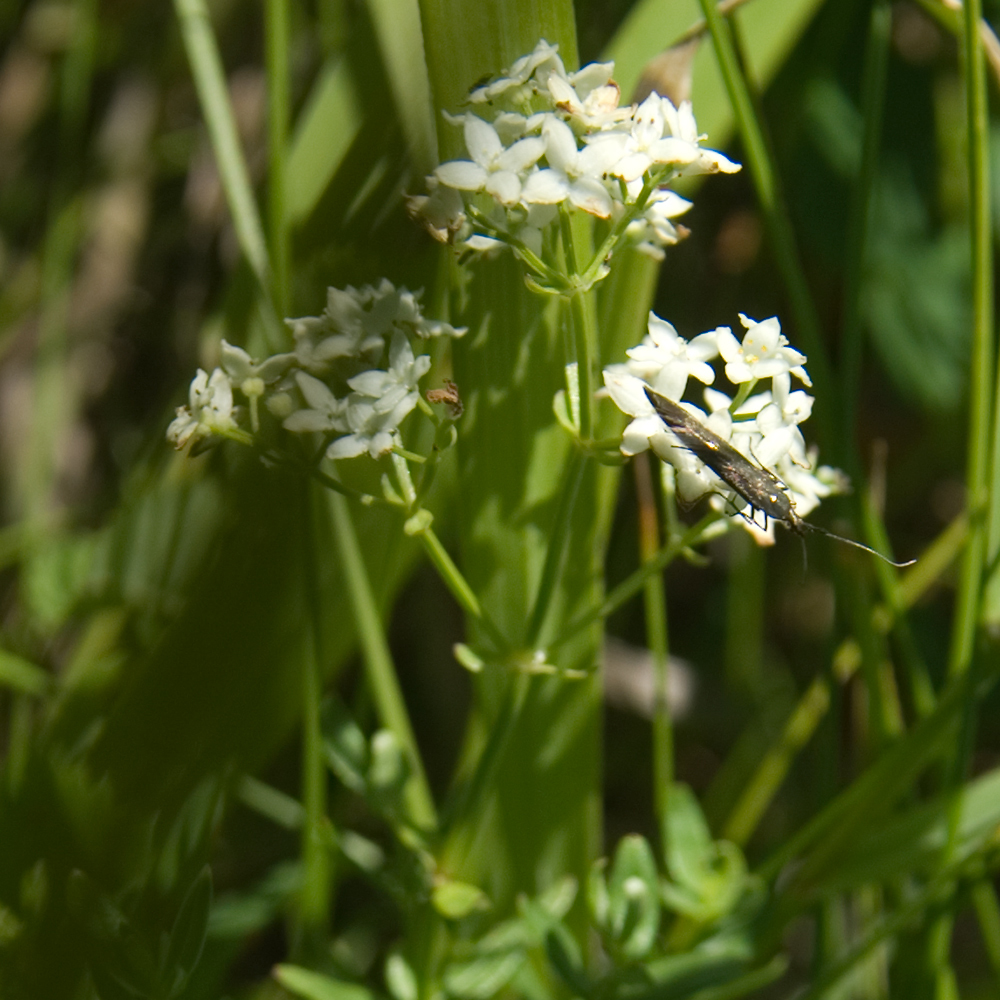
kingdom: Plantae
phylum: Tracheophyta
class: Magnoliopsida
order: Gentianales
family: Rubiaceae
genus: Galium
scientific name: Galium boreale
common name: Northern bedstraw
